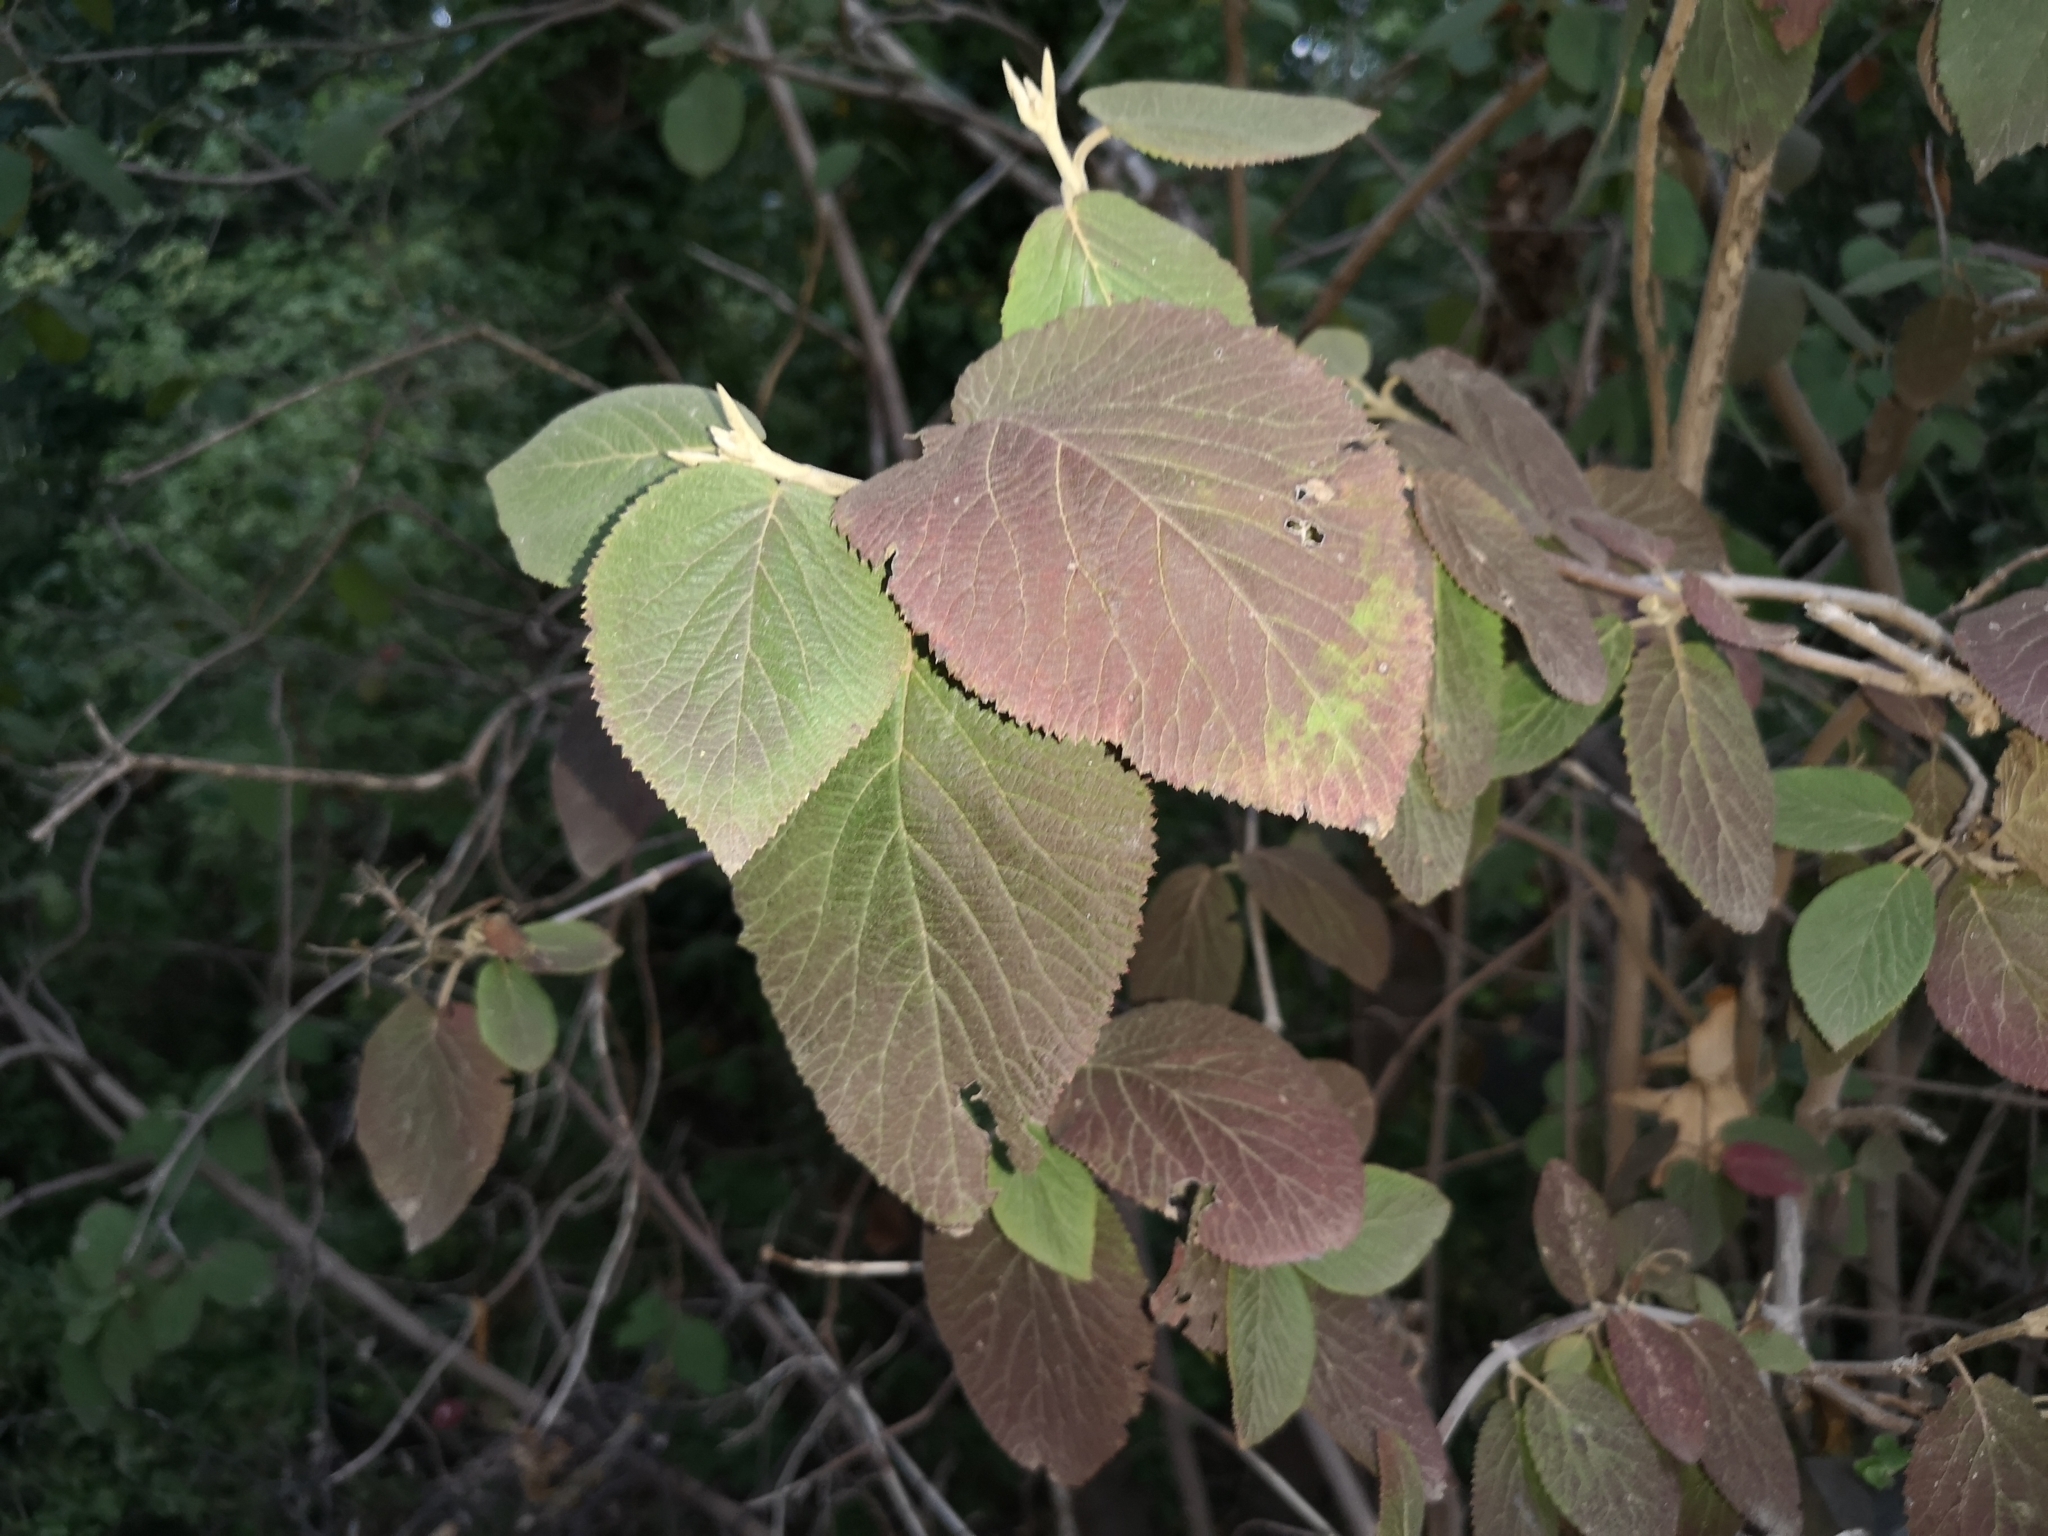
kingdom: Plantae
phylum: Tracheophyta
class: Magnoliopsida
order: Dipsacales
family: Viburnaceae
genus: Viburnum
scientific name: Viburnum lantana
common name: Wayfaring tree
